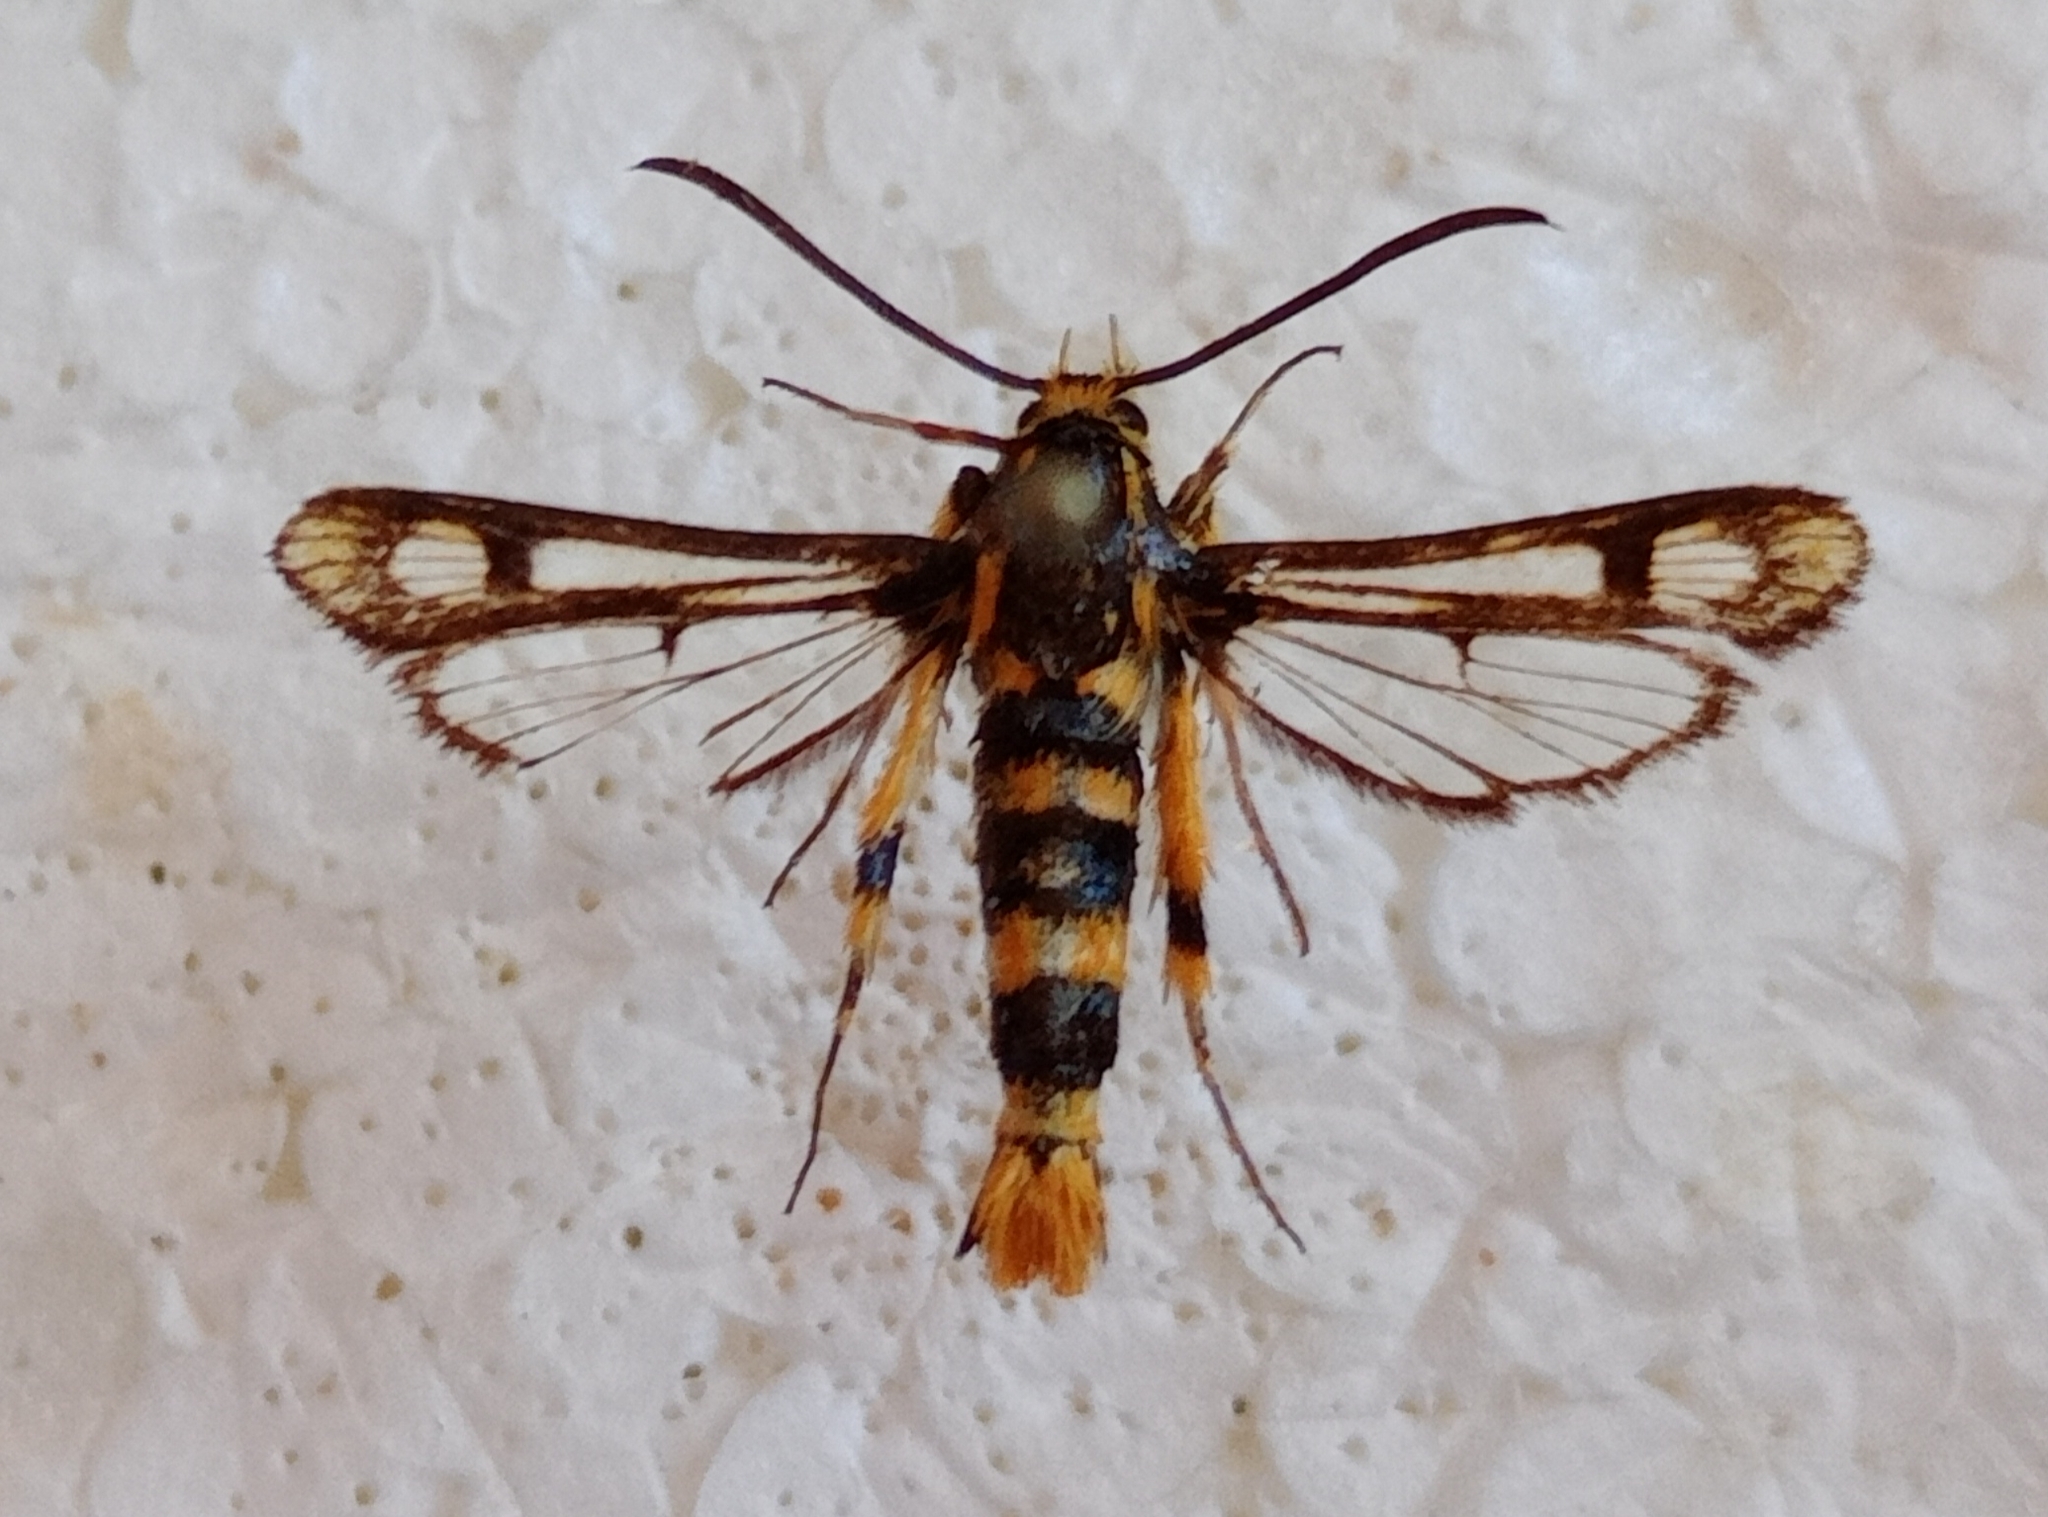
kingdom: Animalia
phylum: Arthropoda
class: Insecta
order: Lepidoptera
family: Sesiidae
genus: Chamaesphecia
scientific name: Chamaesphecia masariformis
